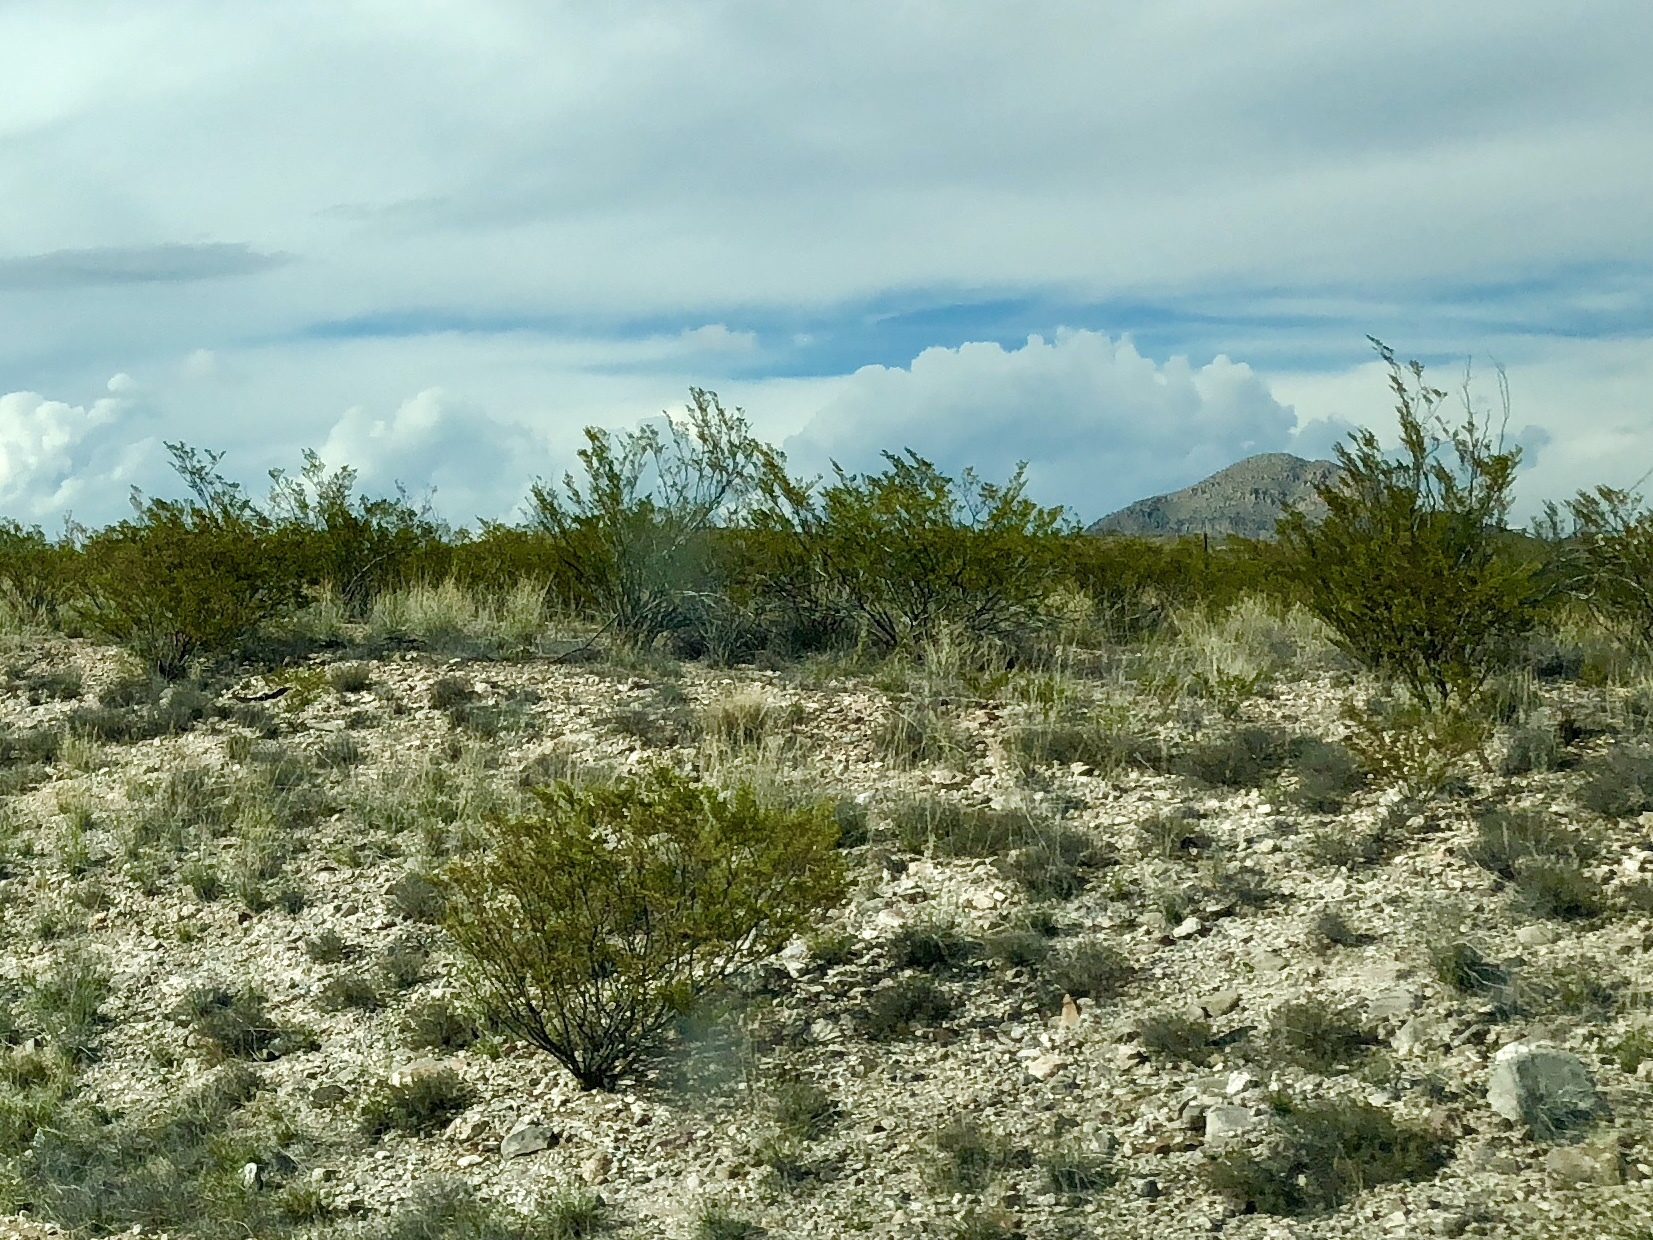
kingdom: Plantae
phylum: Tracheophyta
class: Magnoliopsida
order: Zygophyllales
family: Zygophyllaceae
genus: Larrea
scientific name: Larrea tridentata
